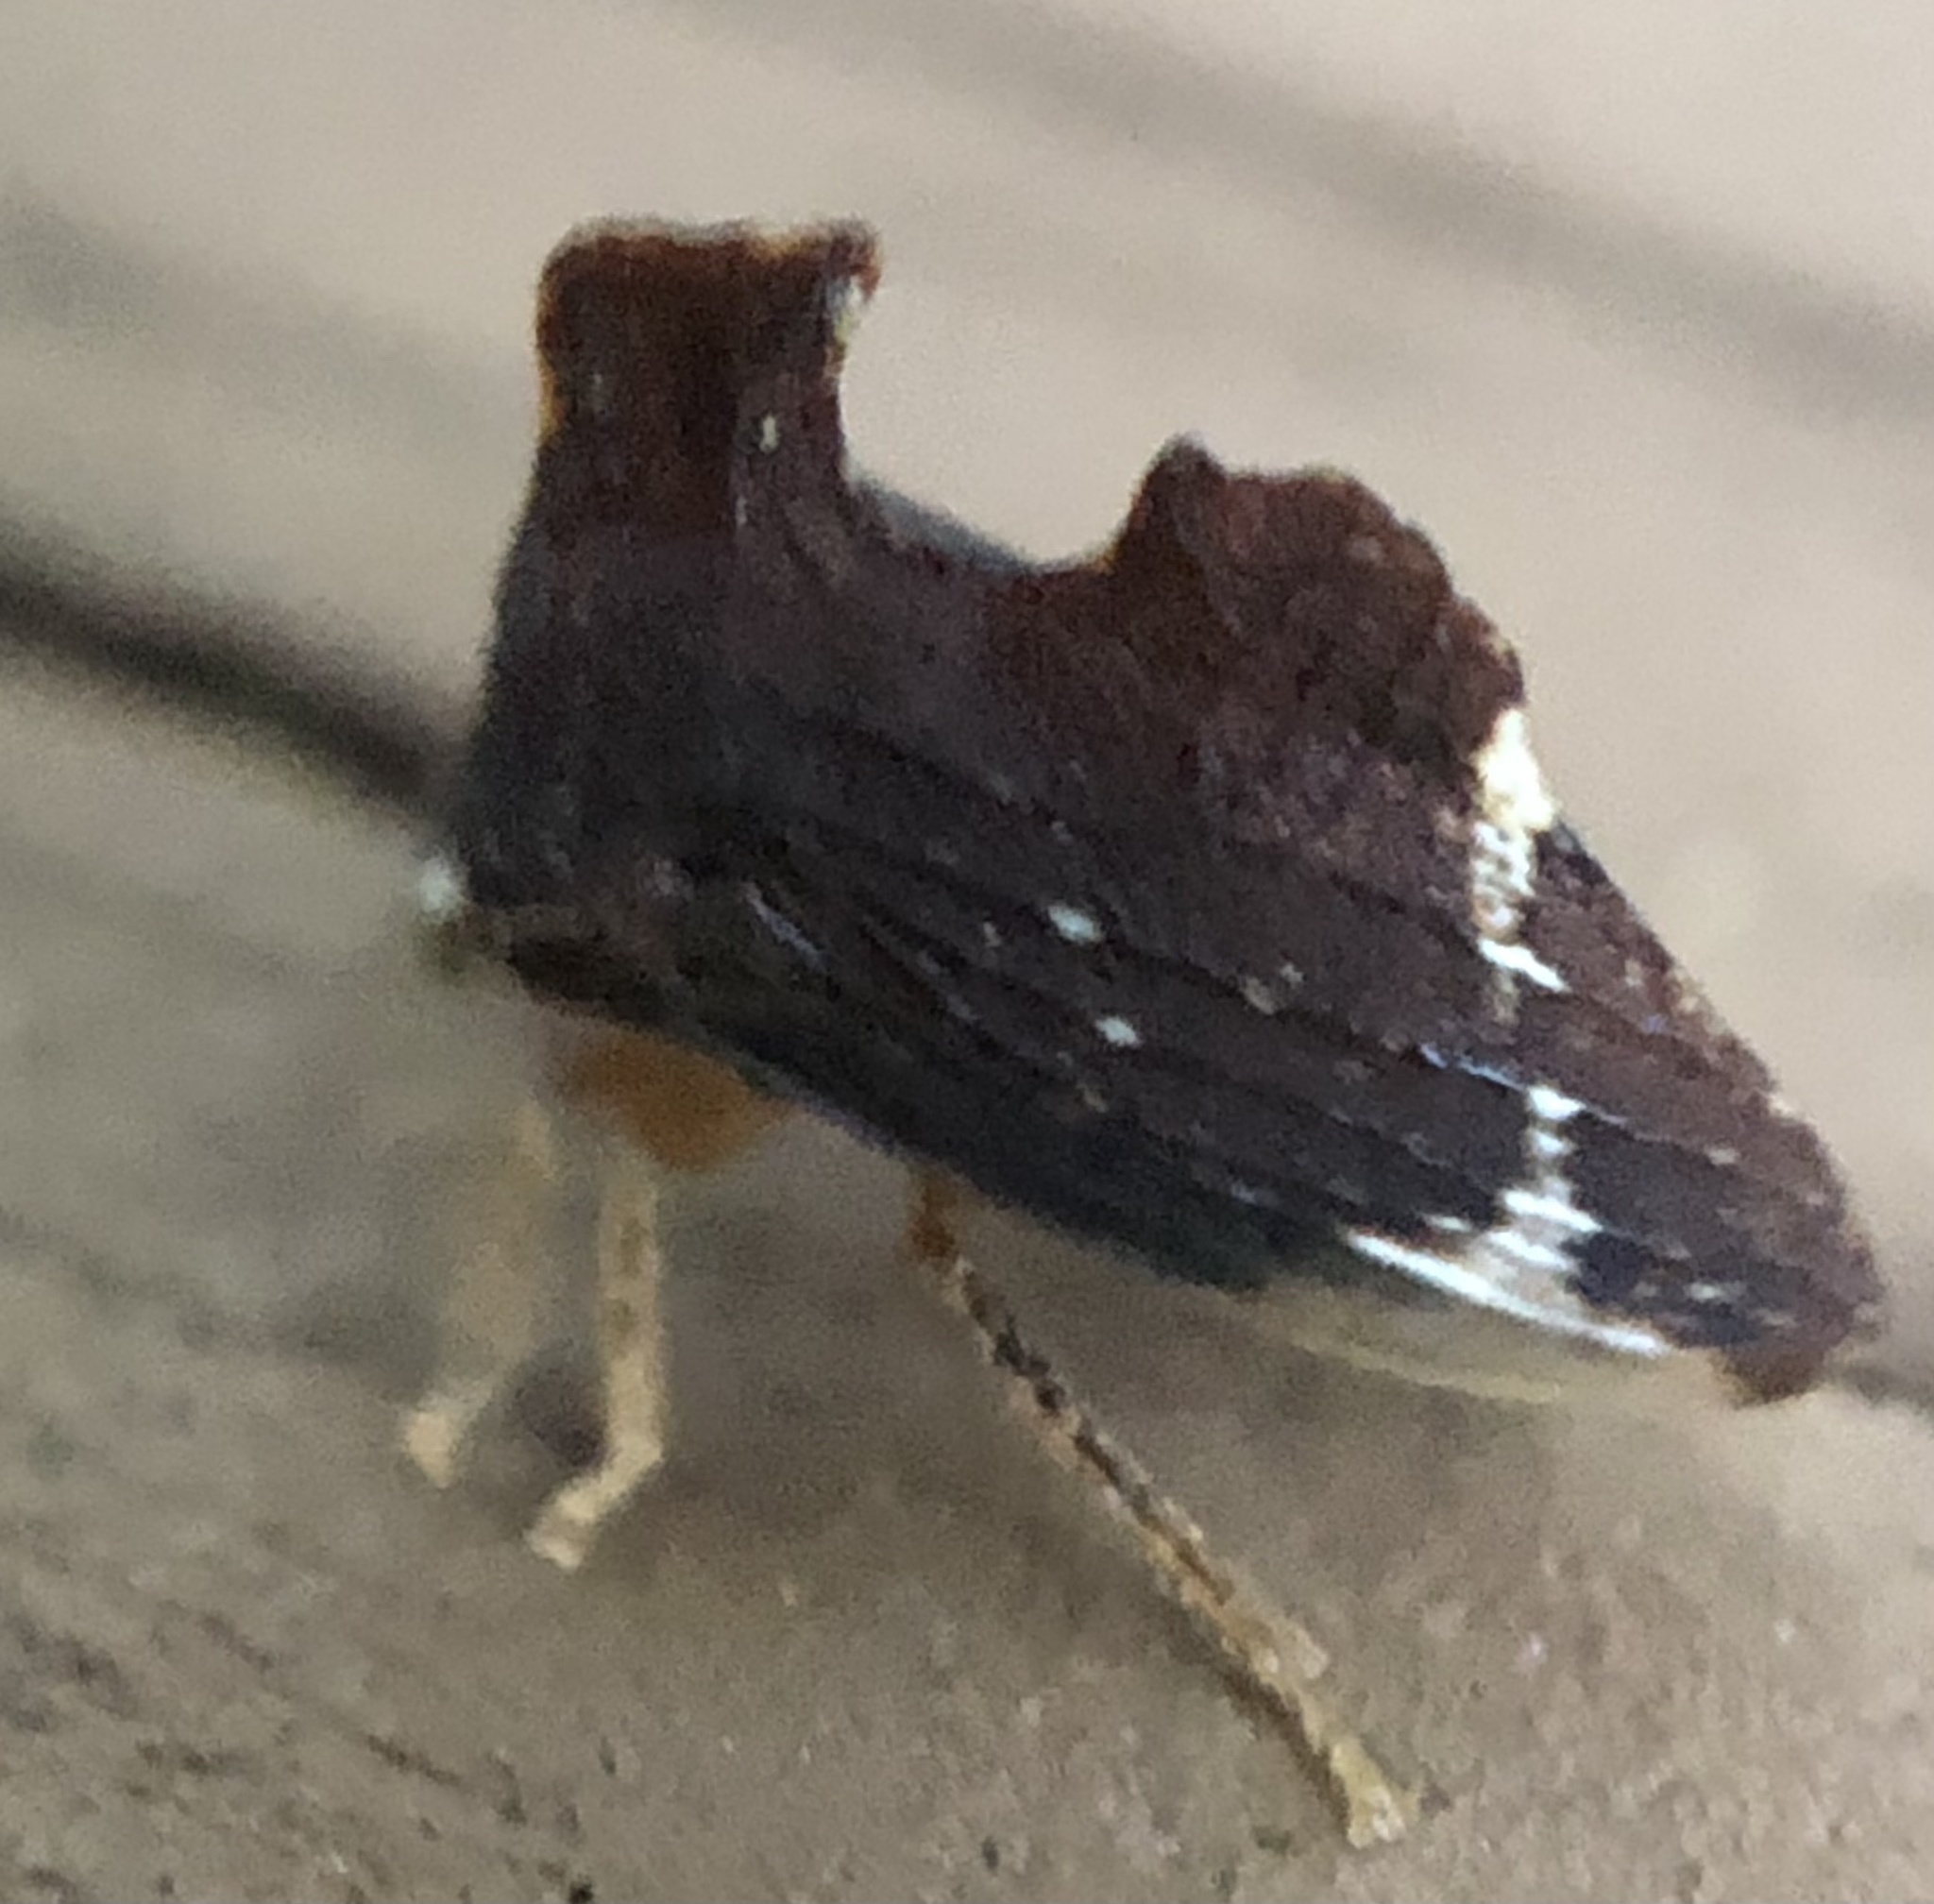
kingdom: Animalia
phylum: Arthropoda
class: Insecta
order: Hemiptera
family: Membracidae
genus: Entylia
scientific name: Entylia carinata
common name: Keeled treehopper
